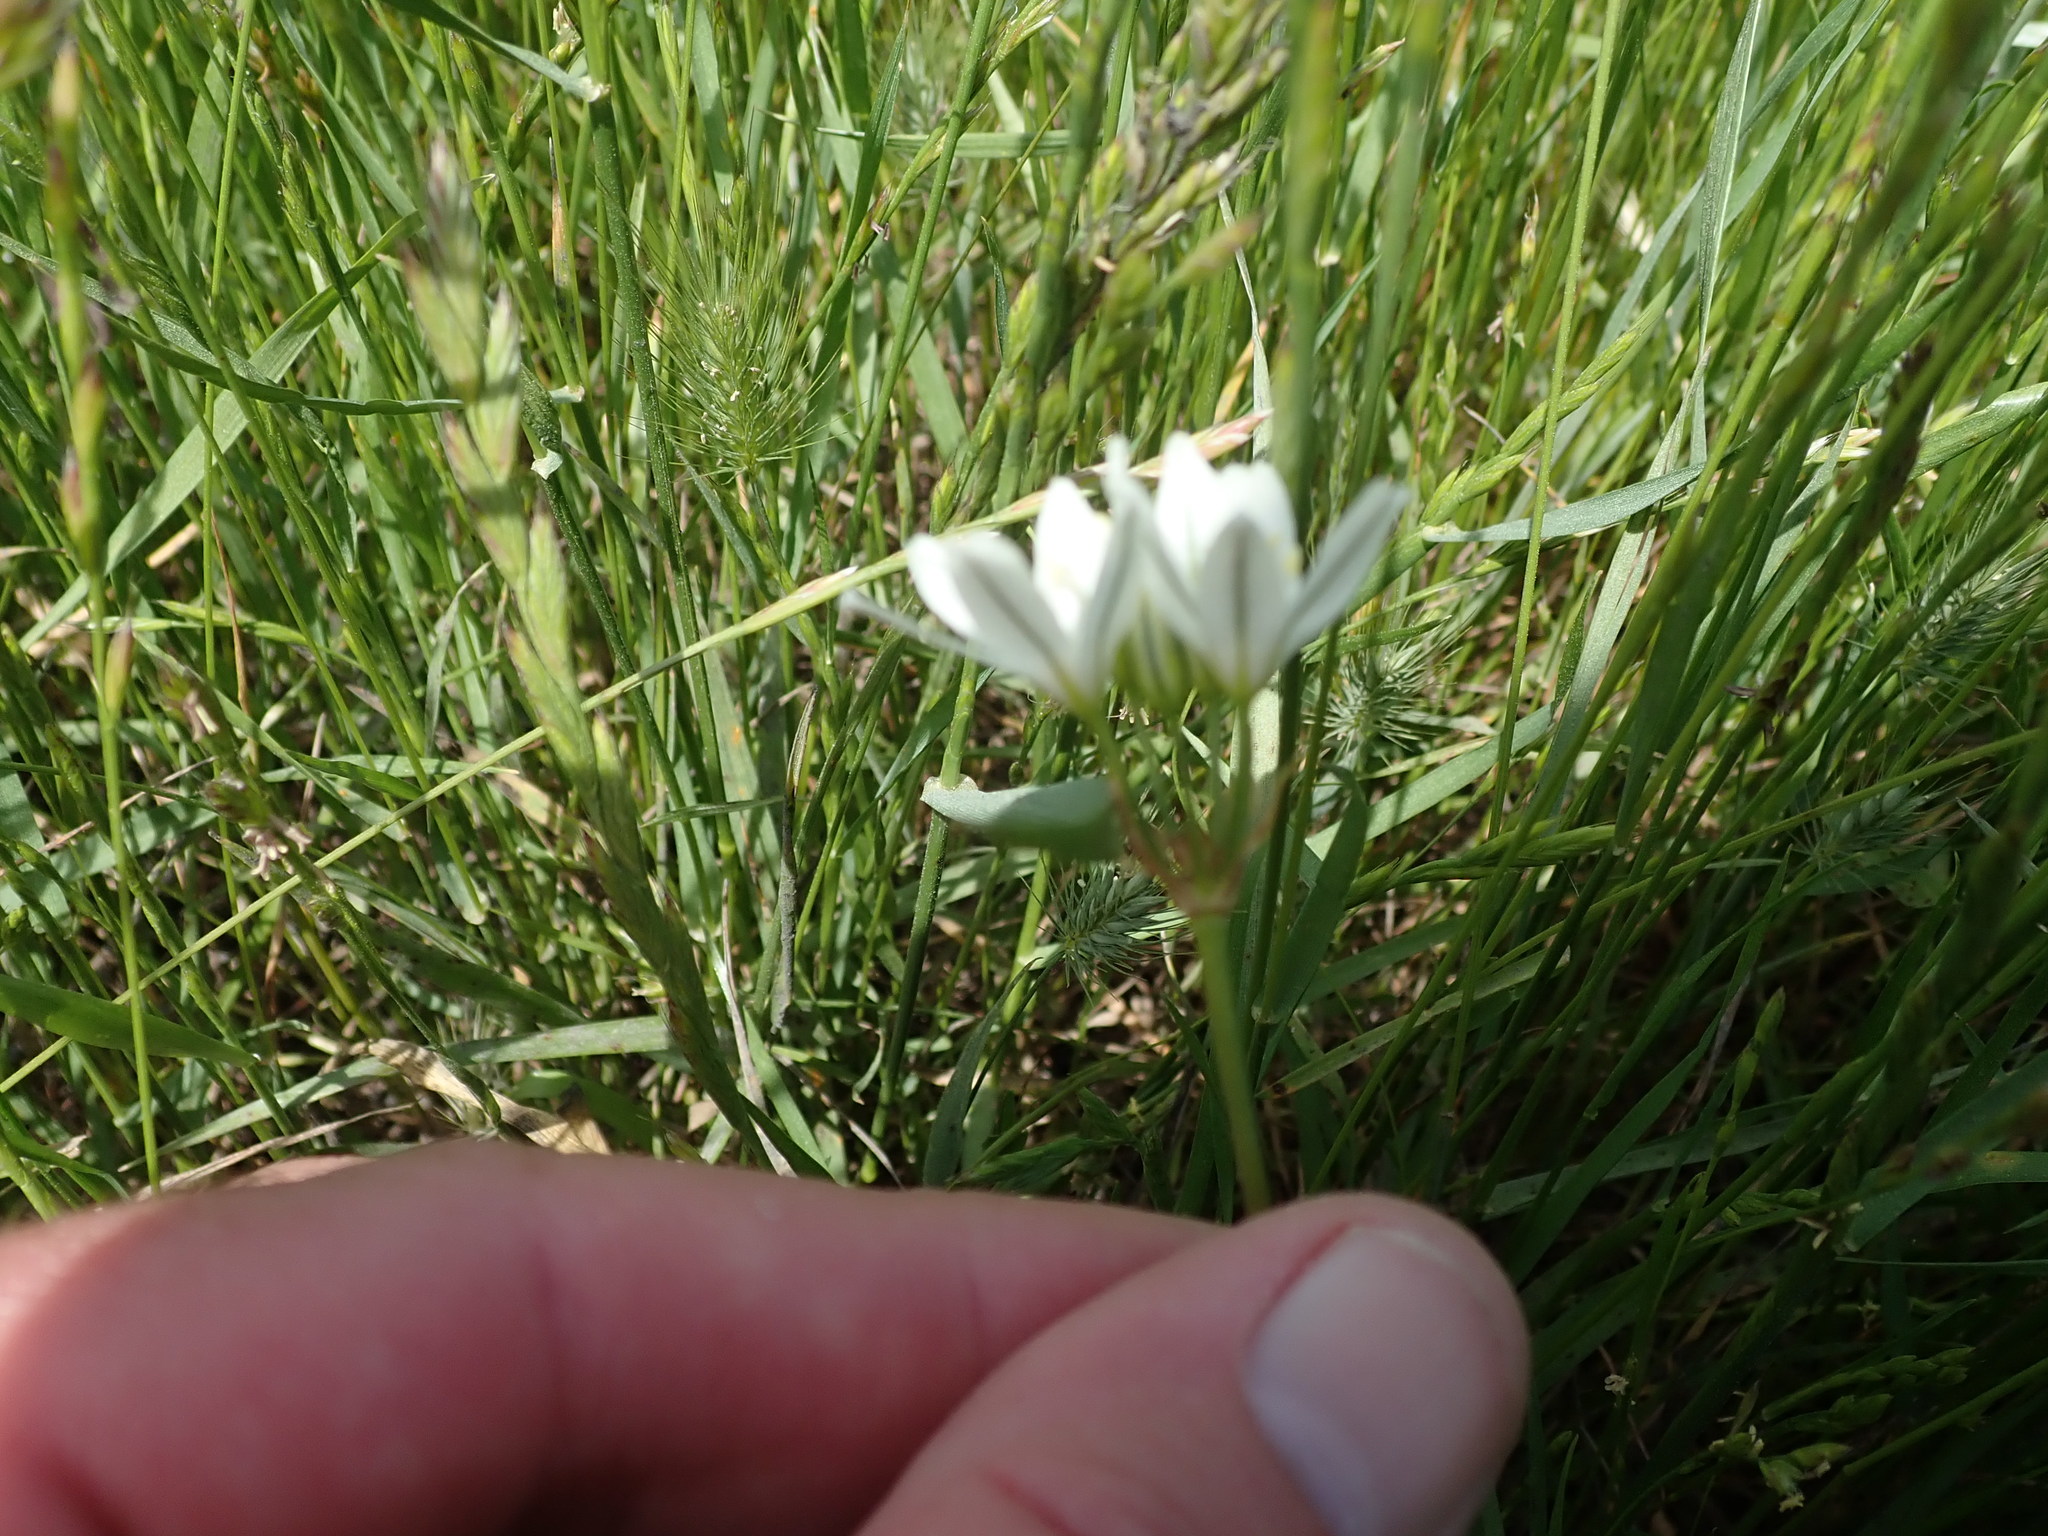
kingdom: Plantae
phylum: Tracheophyta
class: Liliopsida
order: Asparagales
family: Asparagaceae
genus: Triteleia
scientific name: Triteleia hyacinthina
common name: White brodiaea
